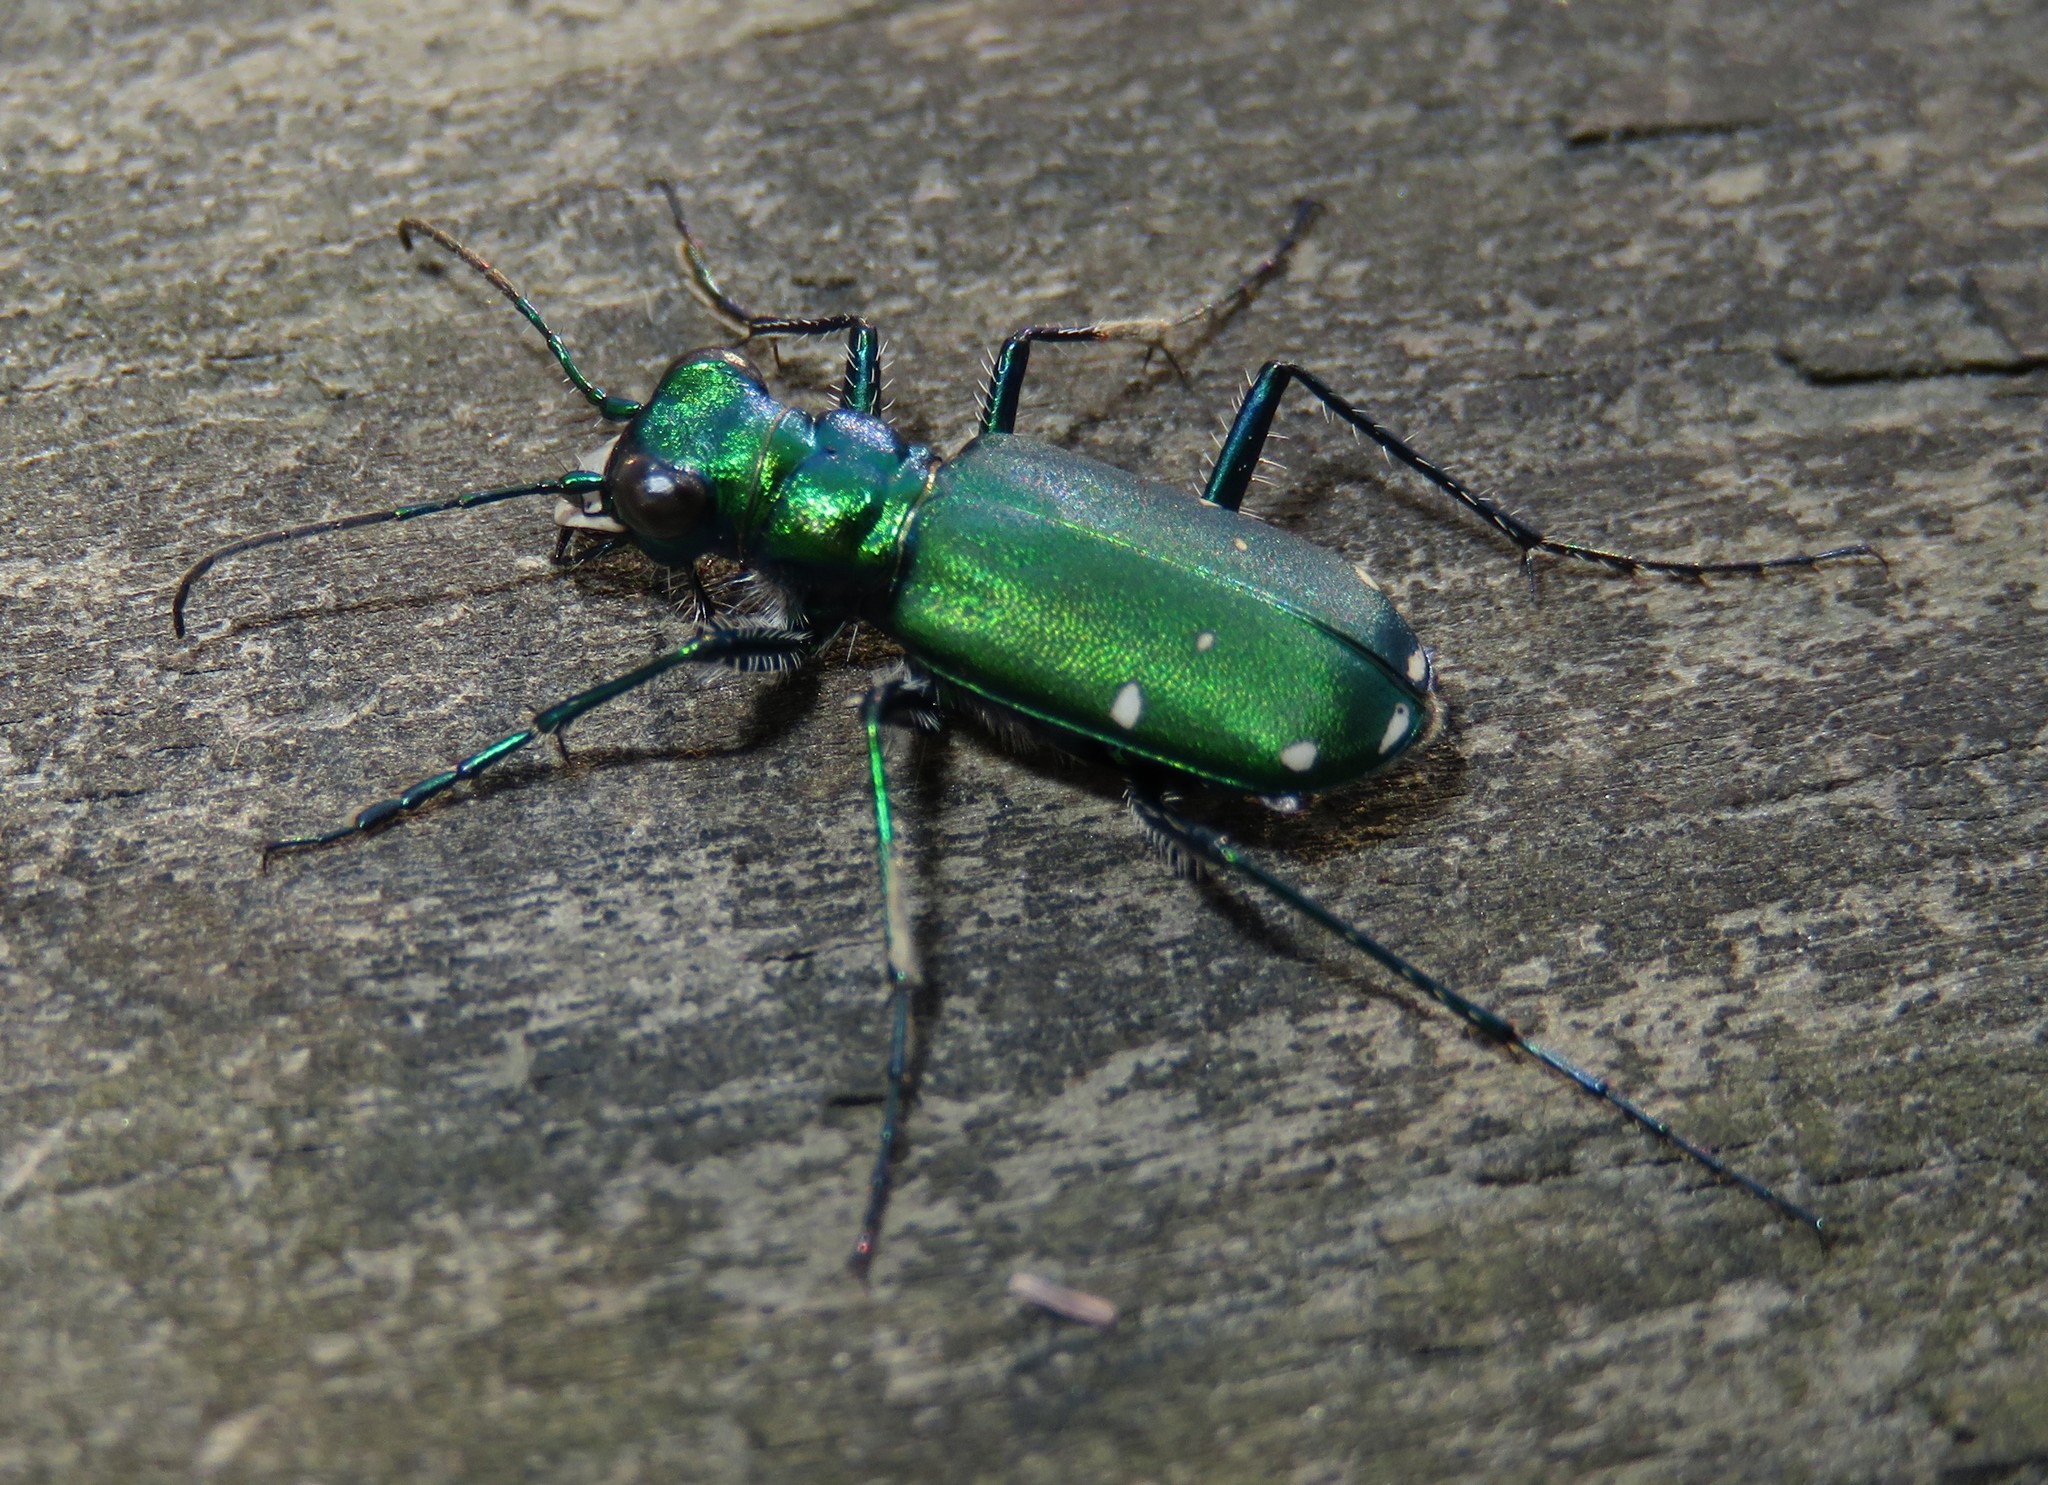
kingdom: Animalia
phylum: Arthropoda
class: Insecta
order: Coleoptera
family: Carabidae
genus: Cicindela
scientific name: Cicindela sexguttata
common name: Six-spotted tiger beetle
